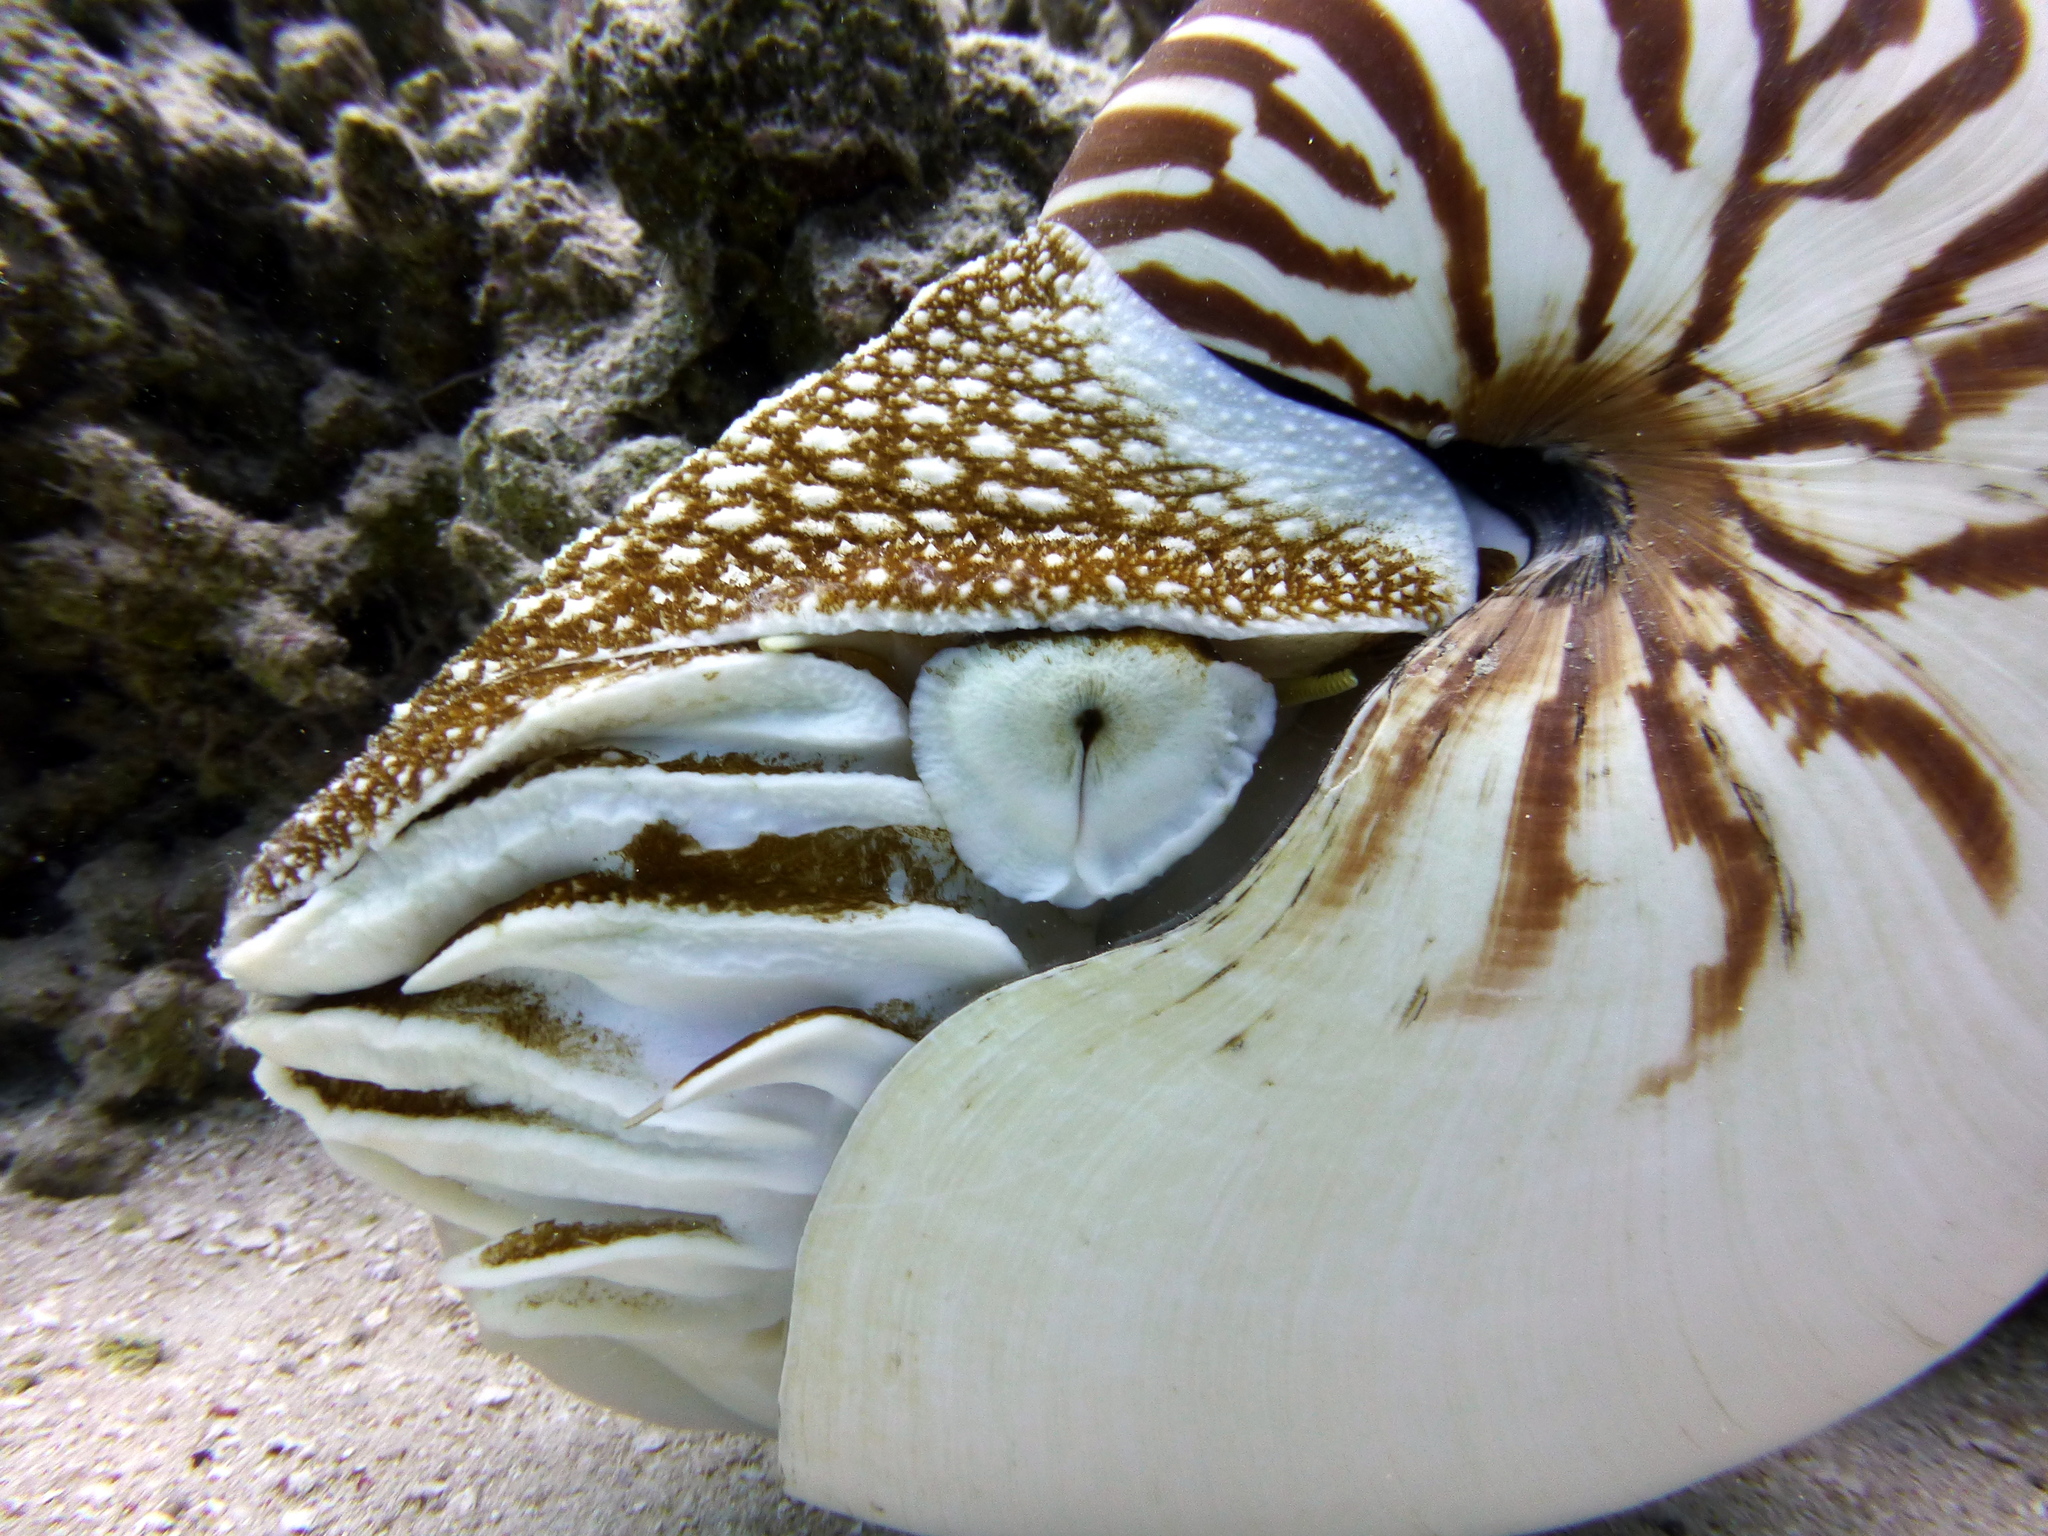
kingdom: Animalia
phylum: Mollusca
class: Cephalopoda
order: Nautilida
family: Nautilidae
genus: Nautilus
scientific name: Nautilus belauensis
